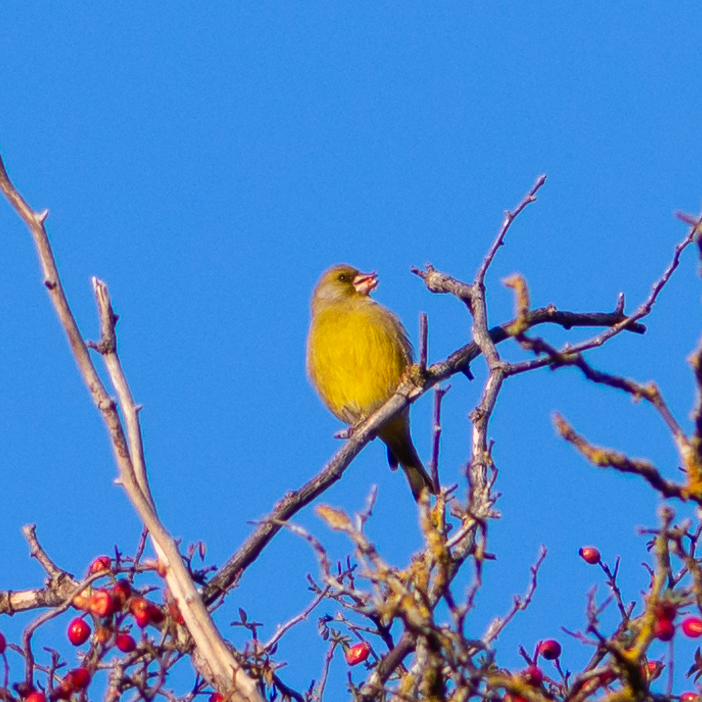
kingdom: Plantae
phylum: Tracheophyta
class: Liliopsida
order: Poales
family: Poaceae
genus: Chloris
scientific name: Chloris chloris
